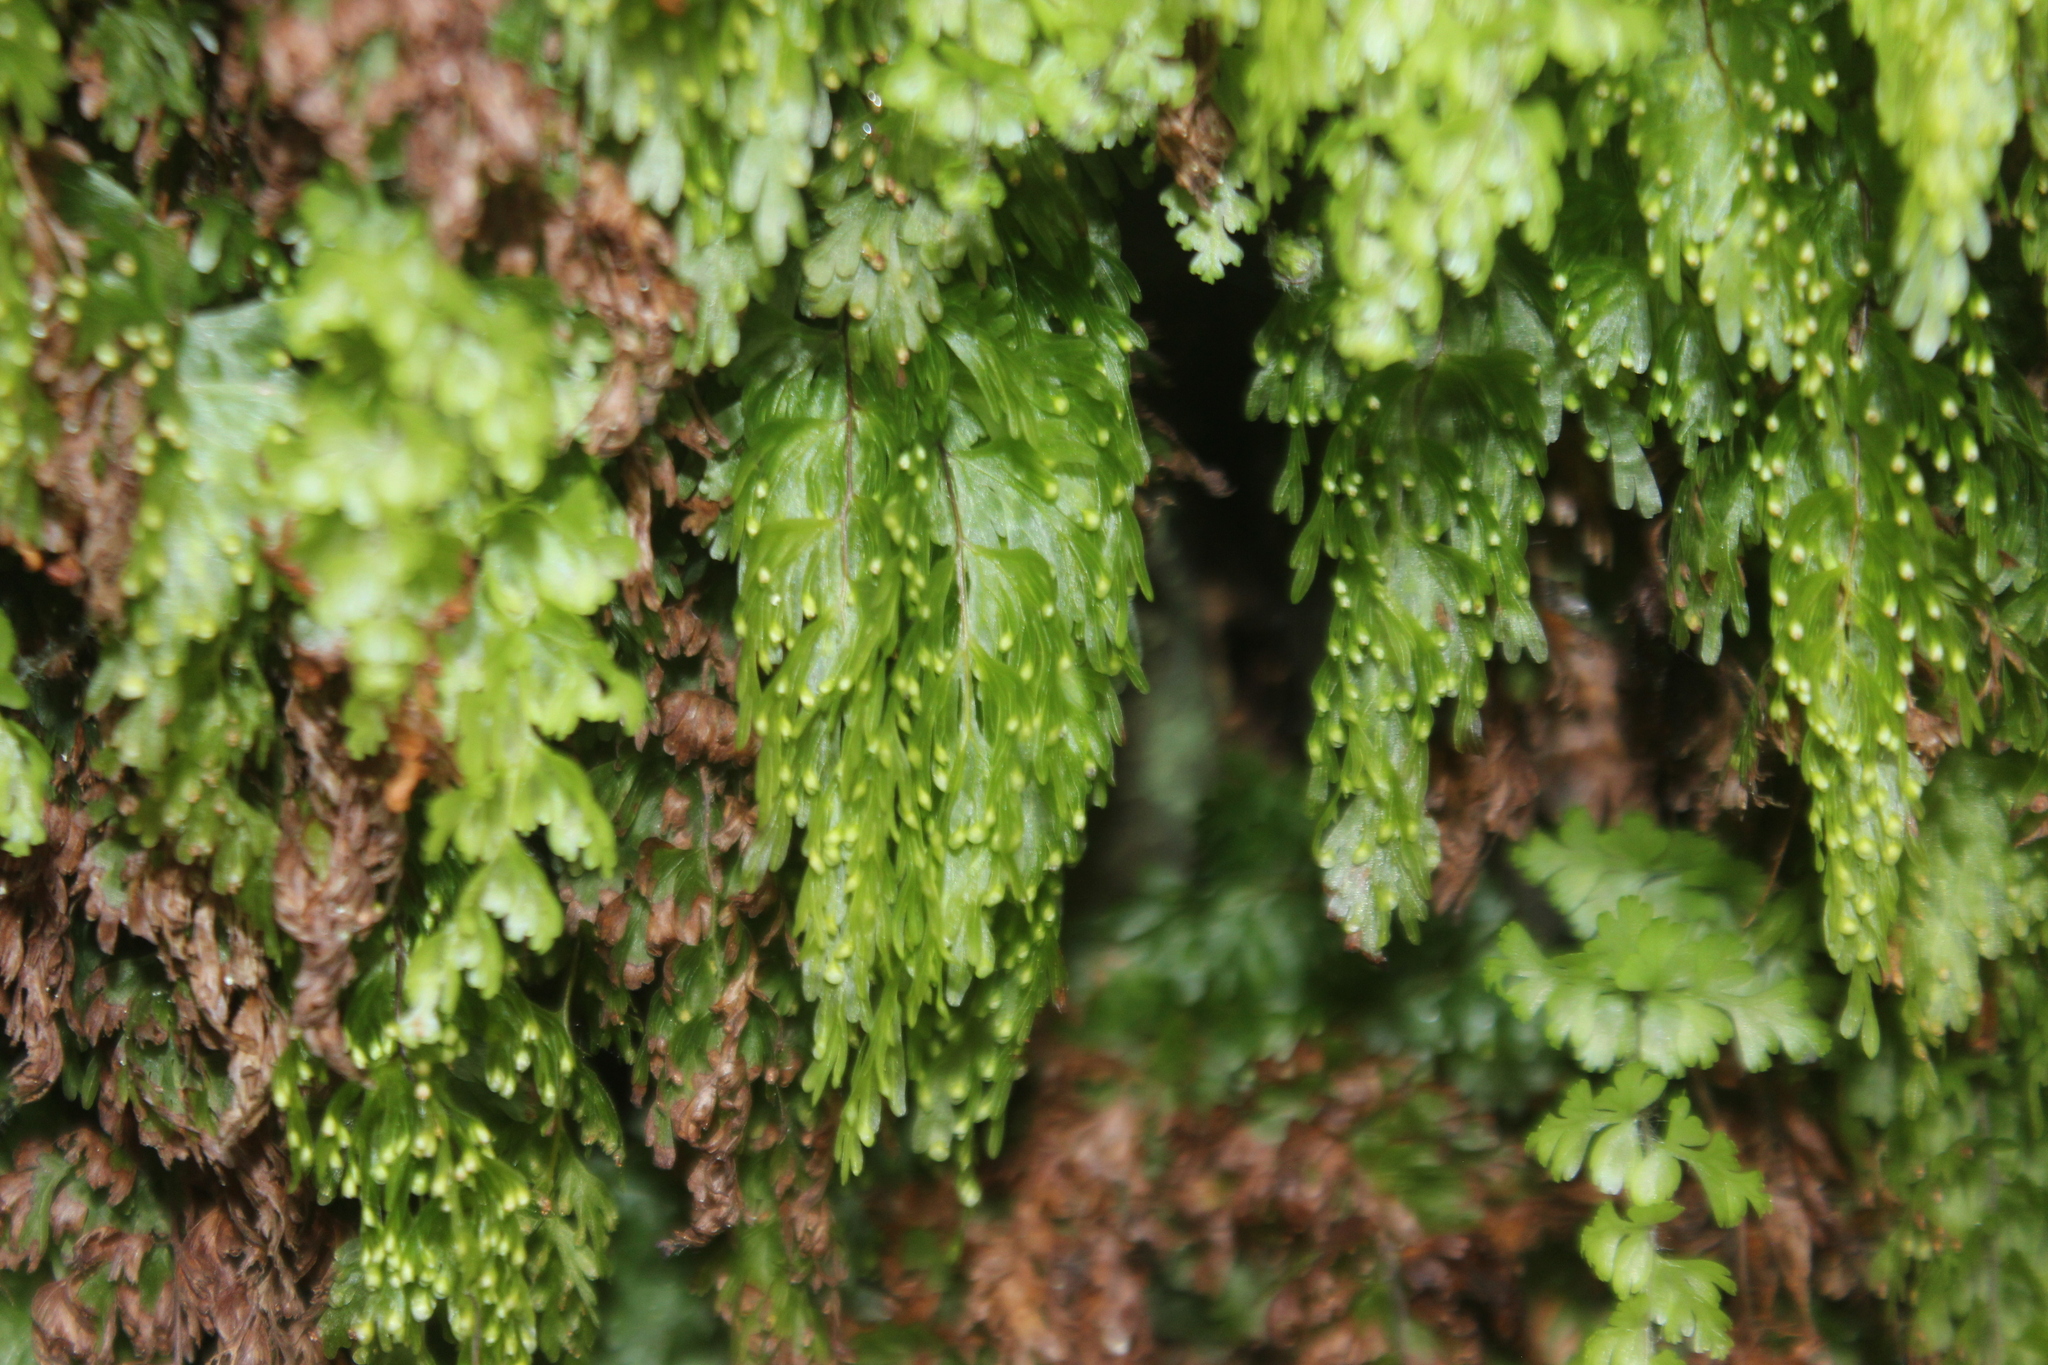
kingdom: Plantae
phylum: Tracheophyta
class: Polypodiopsida
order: Hymenophyllales
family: Hymenophyllaceae
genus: Hymenophyllum
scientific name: Hymenophyllum flabellatum
